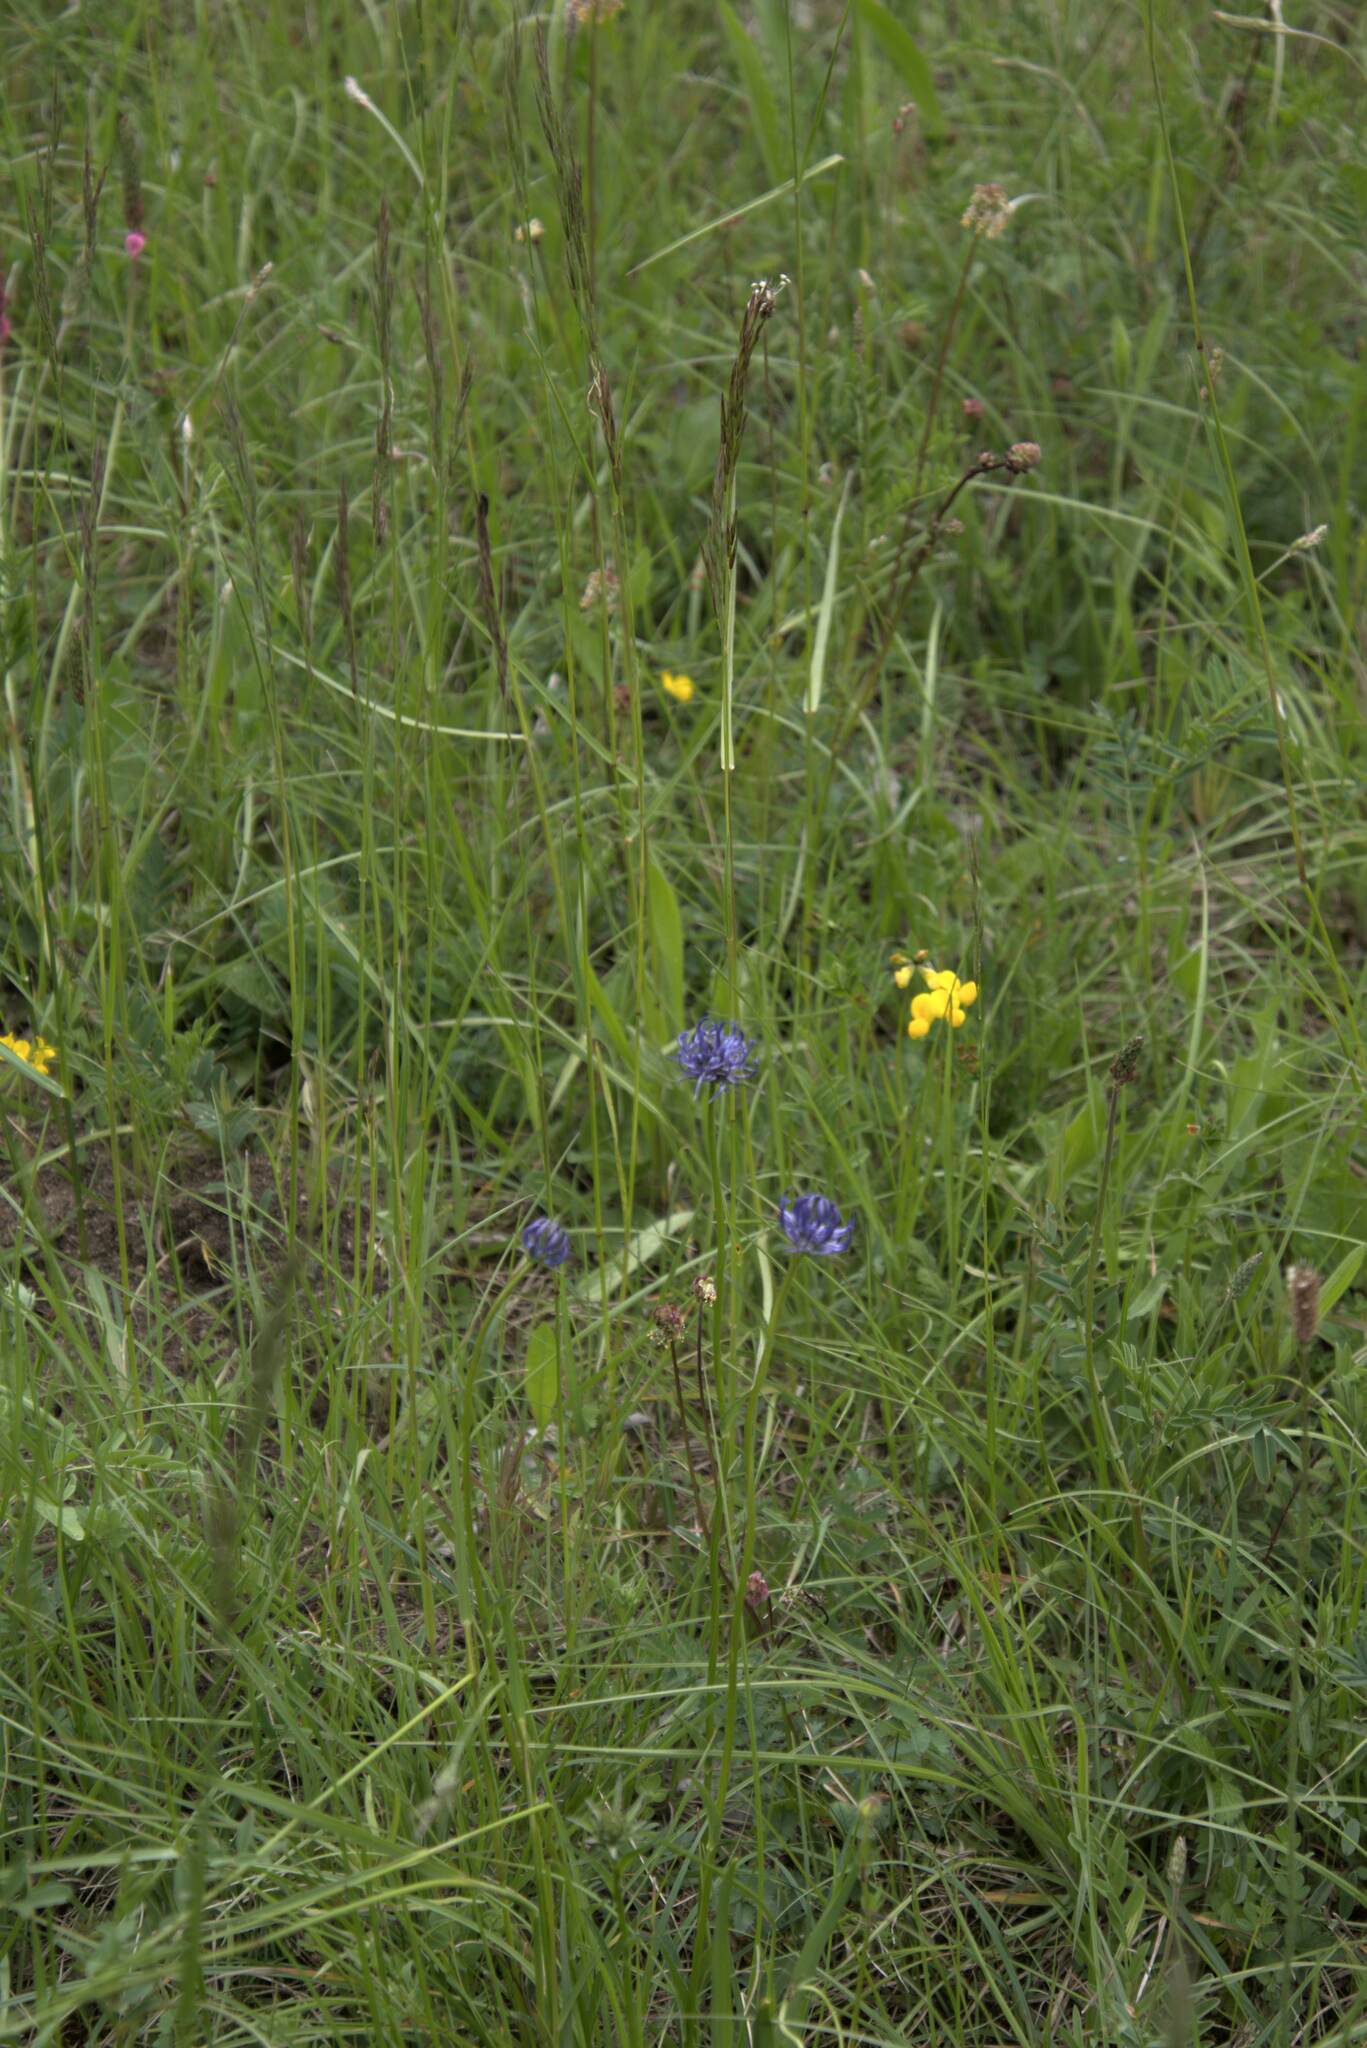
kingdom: Plantae
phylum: Tracheophyta
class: Magnoliopsida
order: Asterales
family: Campanulaceae
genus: Phyteuma
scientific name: Phyteuma orbiculare
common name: Round-headed rampion
